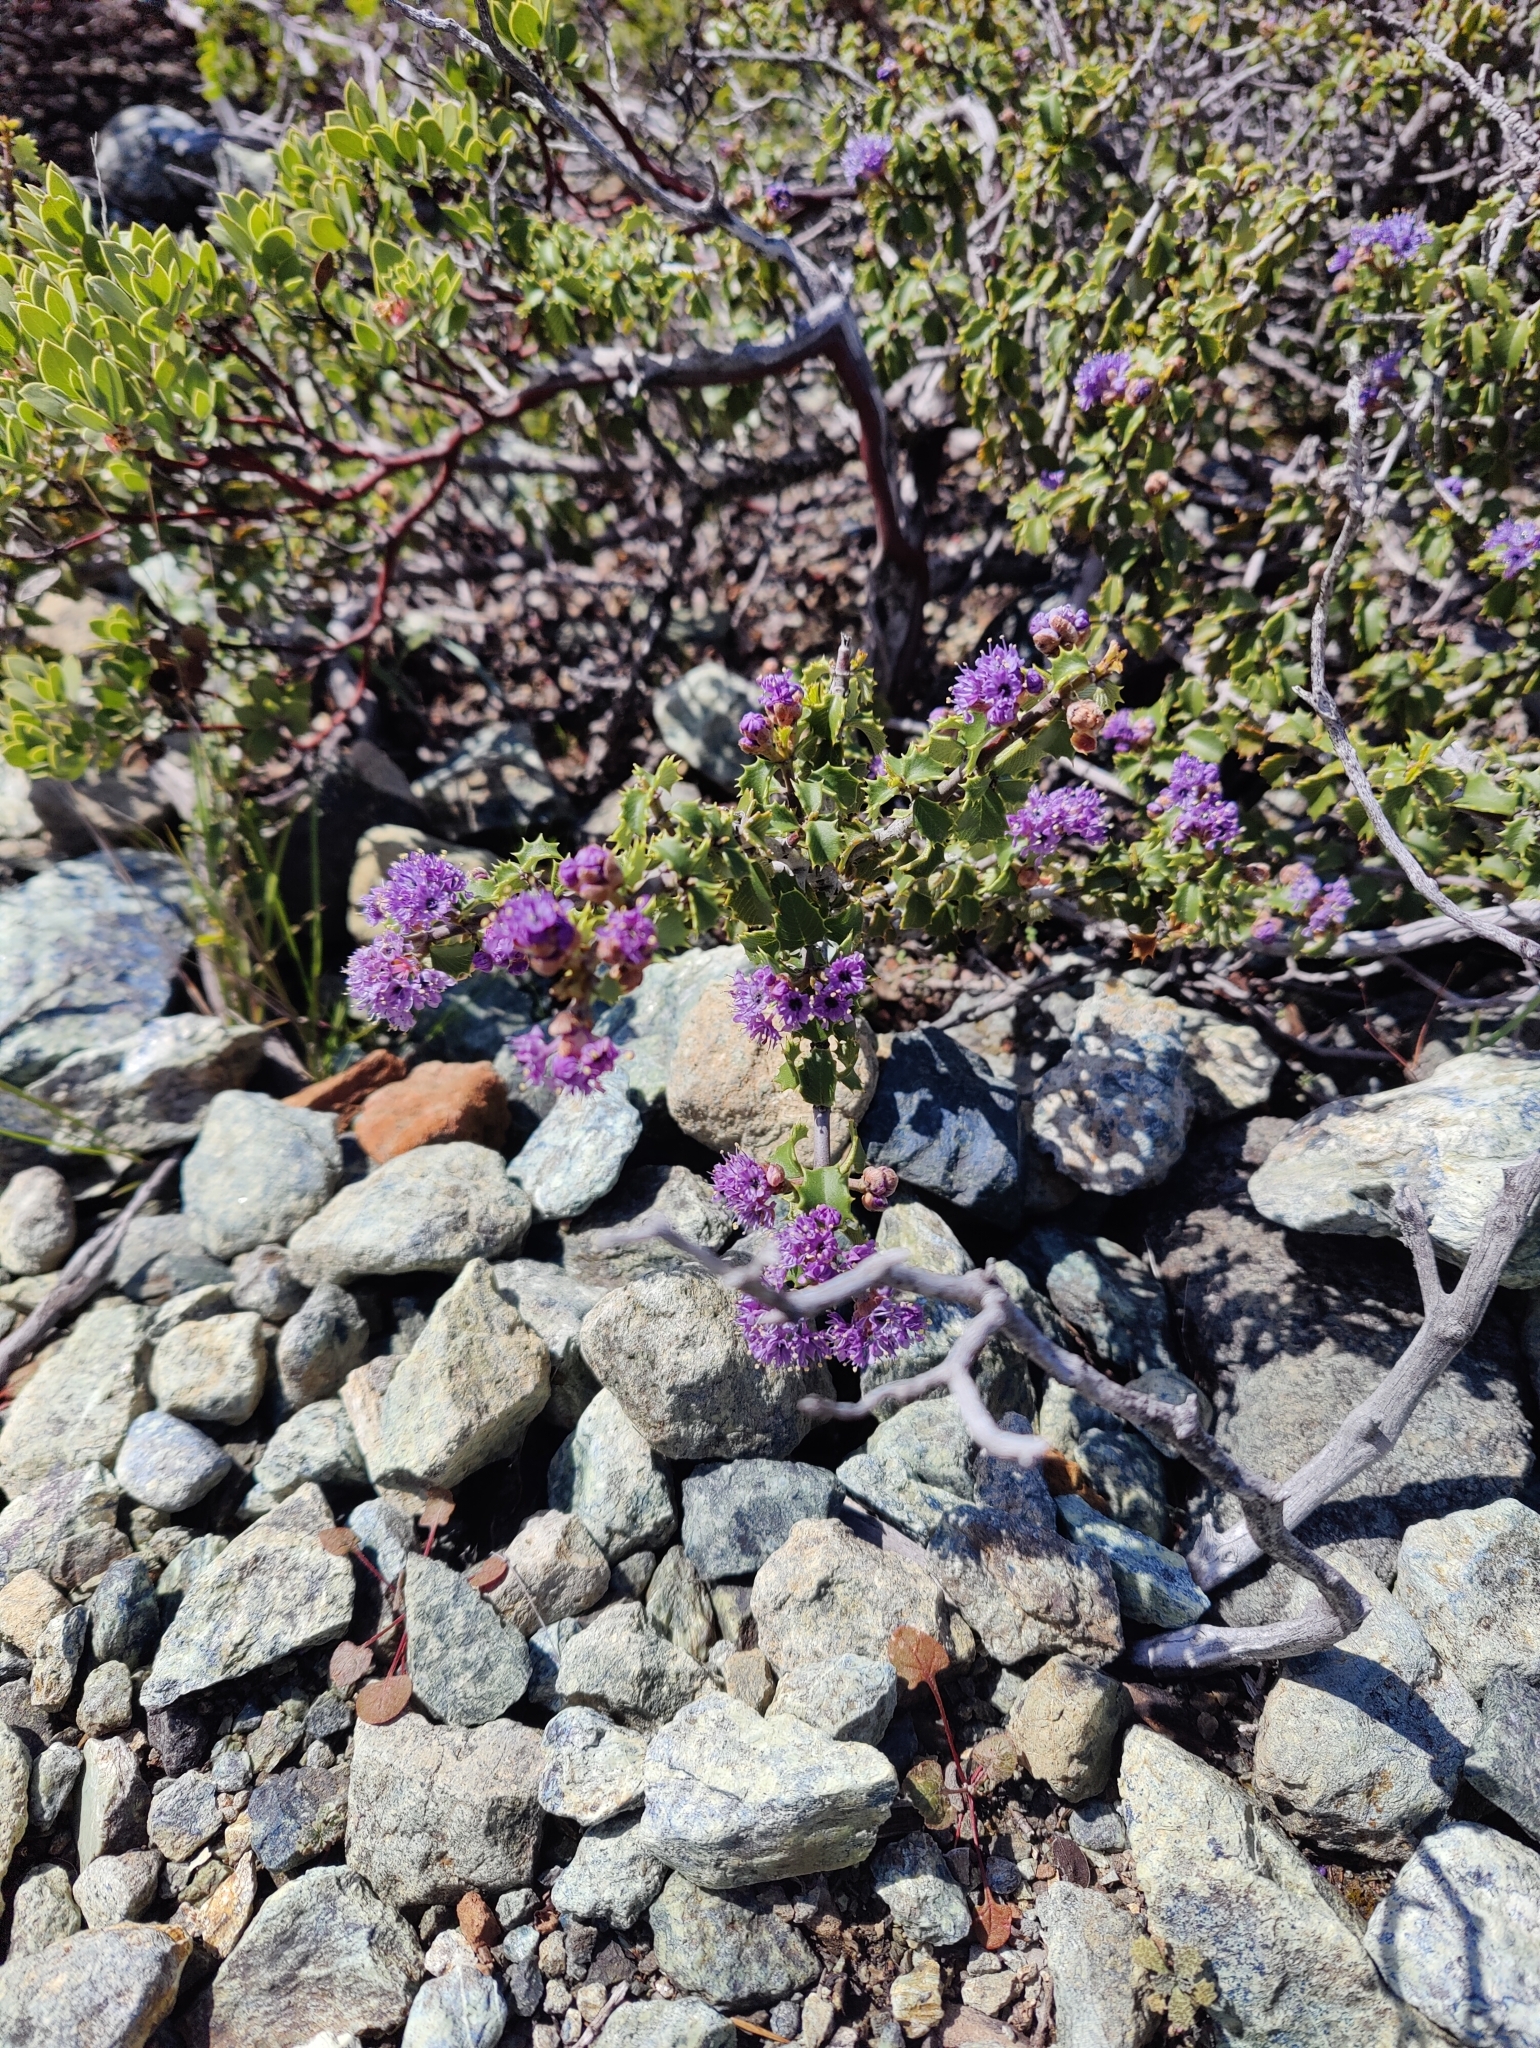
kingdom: Plantae
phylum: Tracheophyta
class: Magnoliopsida
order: Rosales
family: Rhamnaceae
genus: Ceanothus
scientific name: Ceanothus jepsonii
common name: Muskbrush
